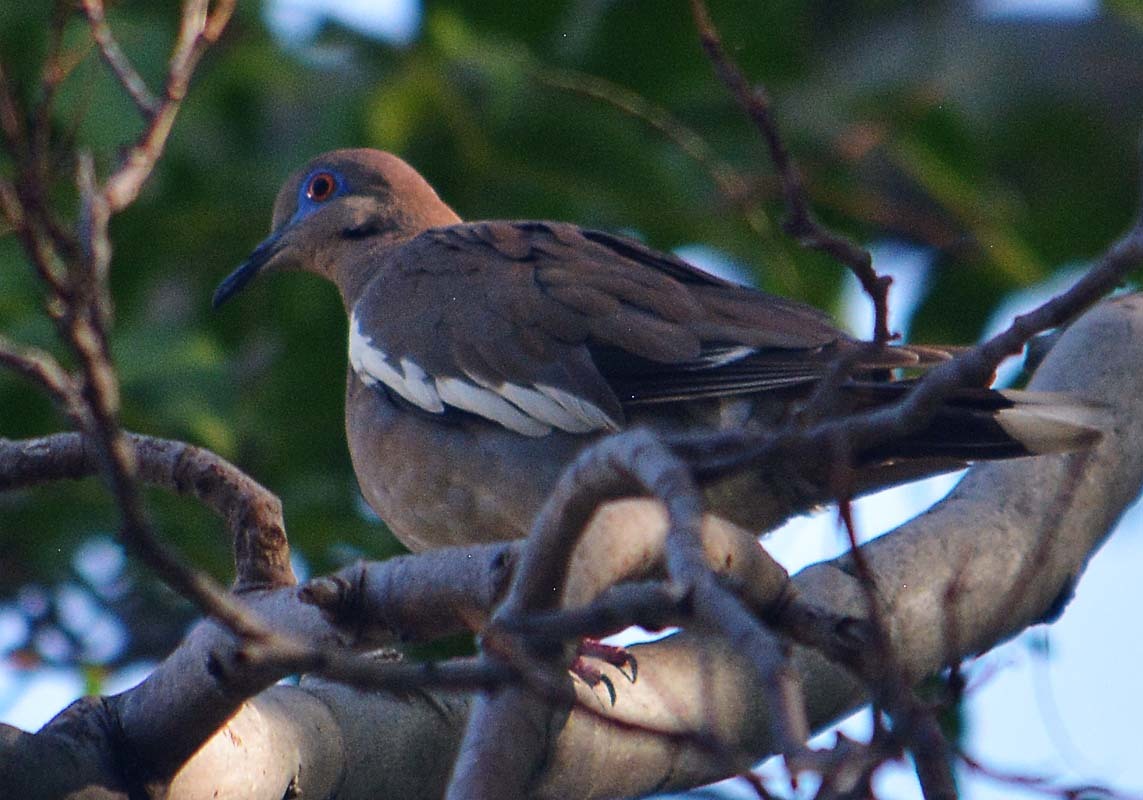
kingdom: Animalia
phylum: Chordata
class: Aves
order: Columbiformes
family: Columbidae
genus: Zenaida
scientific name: Zenaida asiatica
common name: White-winged dove
